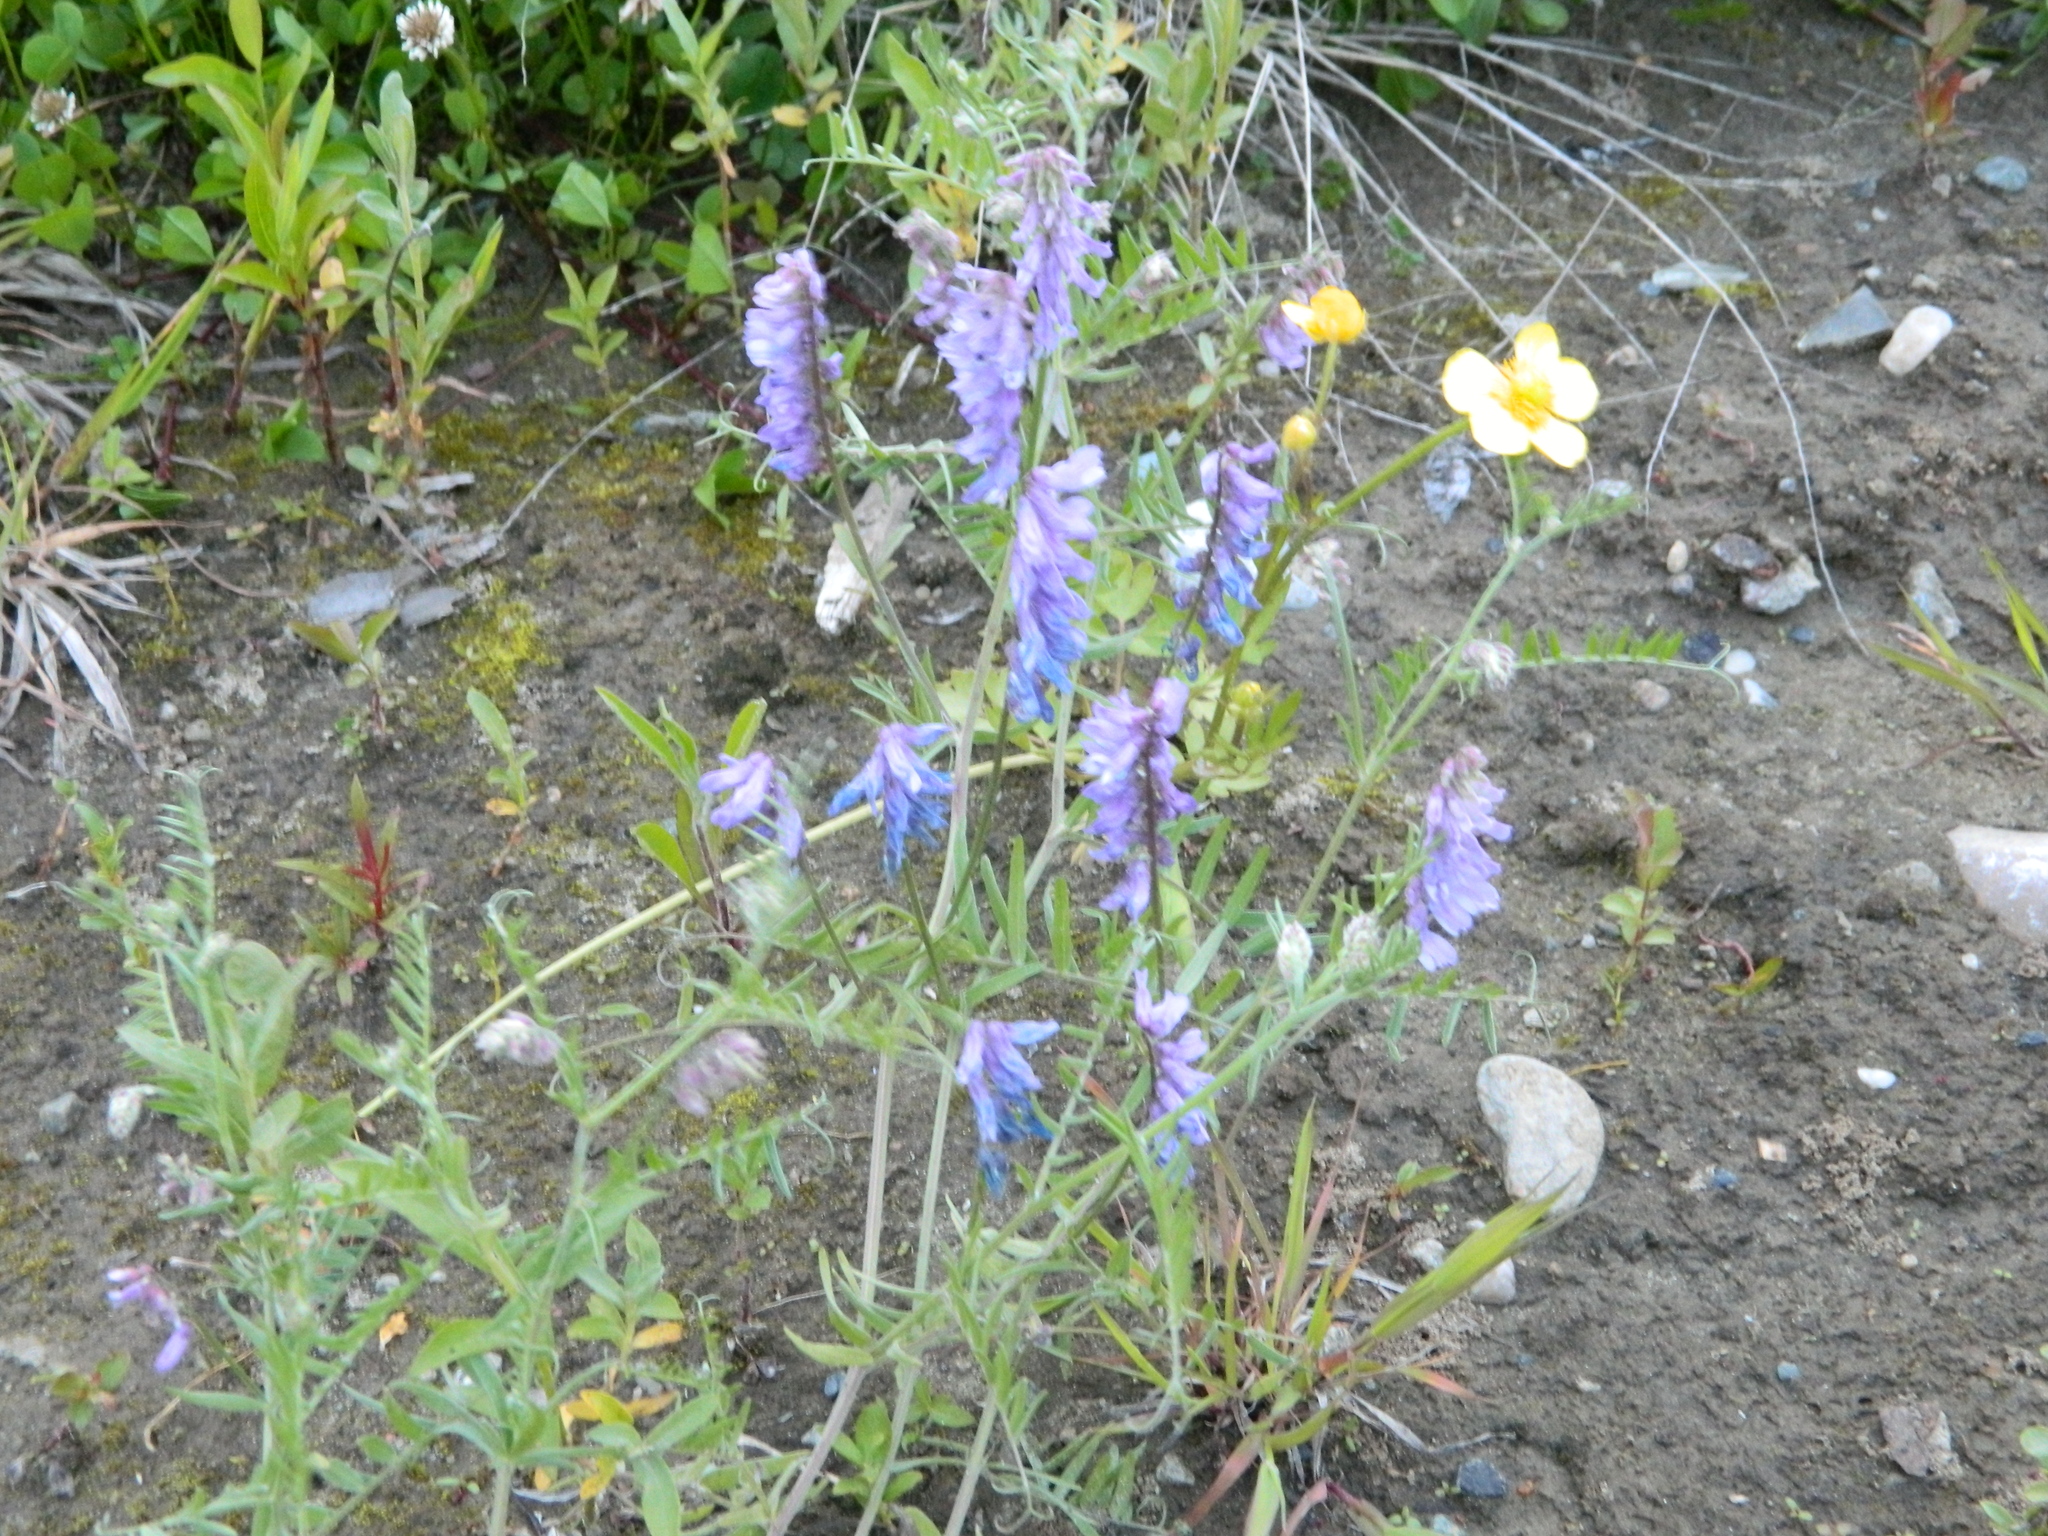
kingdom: Plantae
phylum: Tracheophyta
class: Magnoliopsida
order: Fabales
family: Fabaceae
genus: Vicia
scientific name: Vicia cracca
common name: Bird vetch
